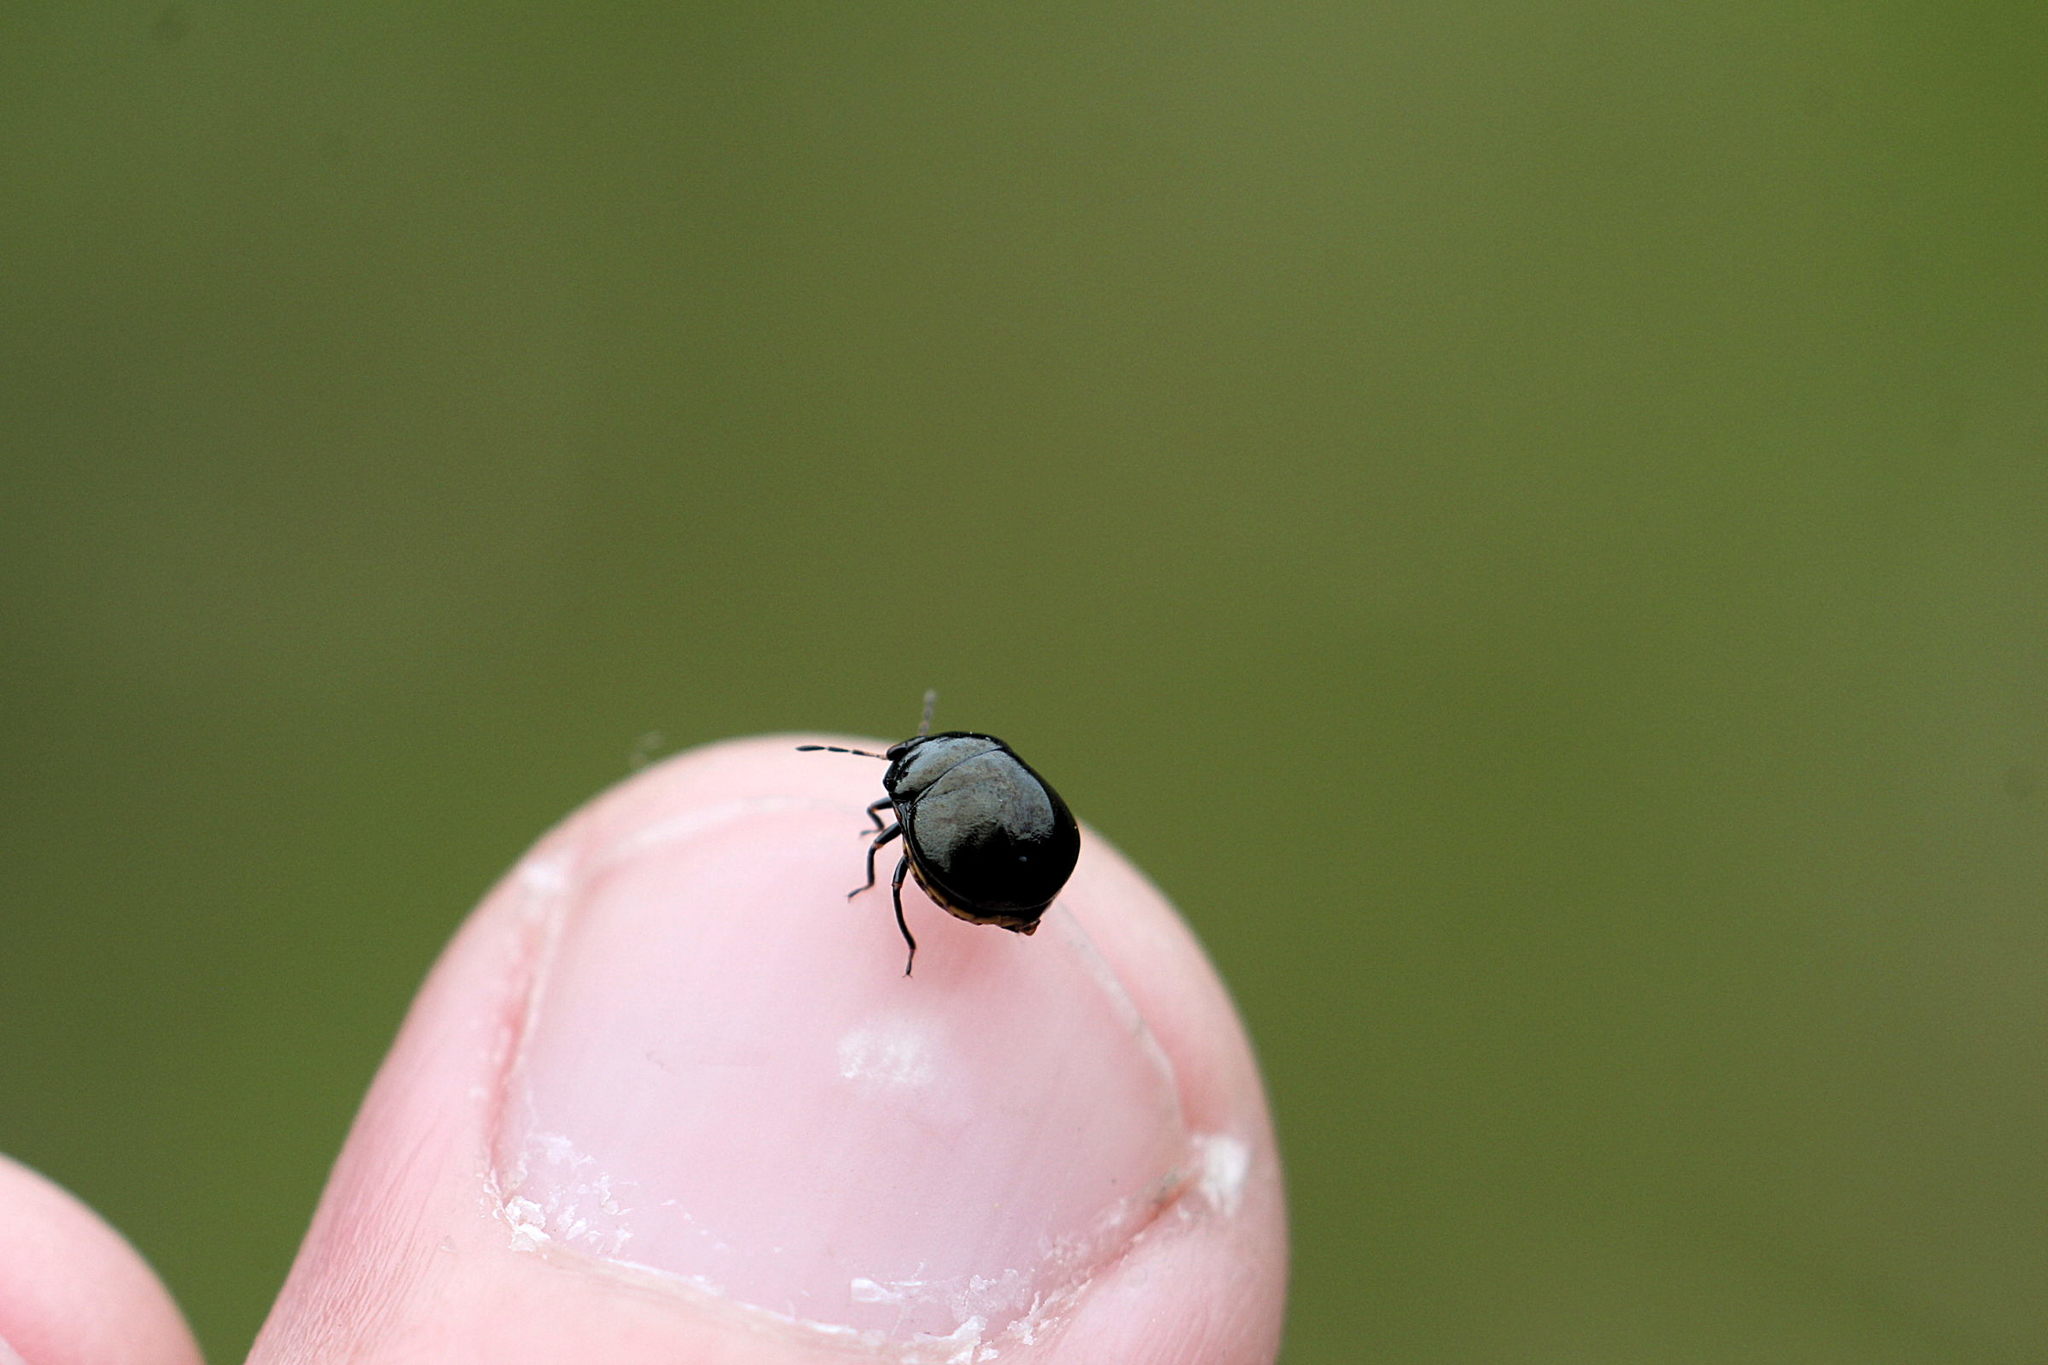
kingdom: Animalia
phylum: Arthropoda
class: Insecta
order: Hemiptera
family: Plataspidae
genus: Coptosoma
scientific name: Coptosoma scutellatum
